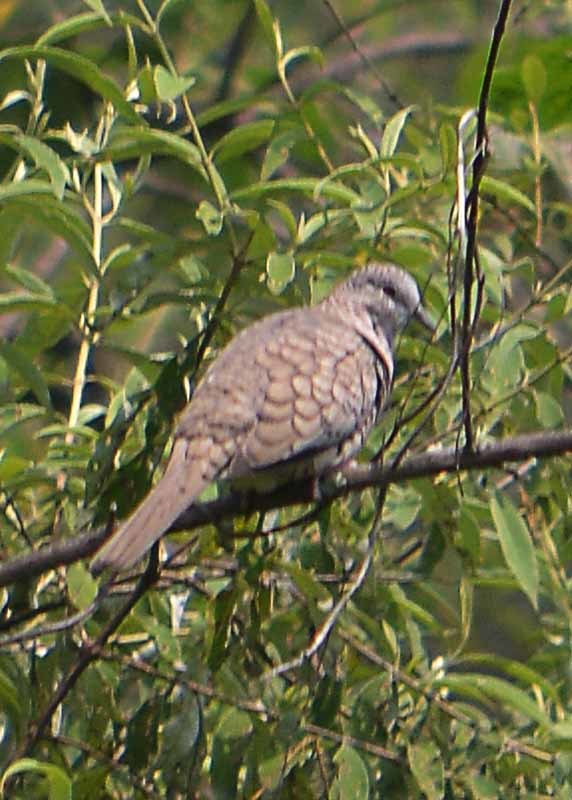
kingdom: Animalia
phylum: Chordata
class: Aves
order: Columbiformes
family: Columbidae
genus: Columbina
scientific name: Columbina inca
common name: Inca dove
